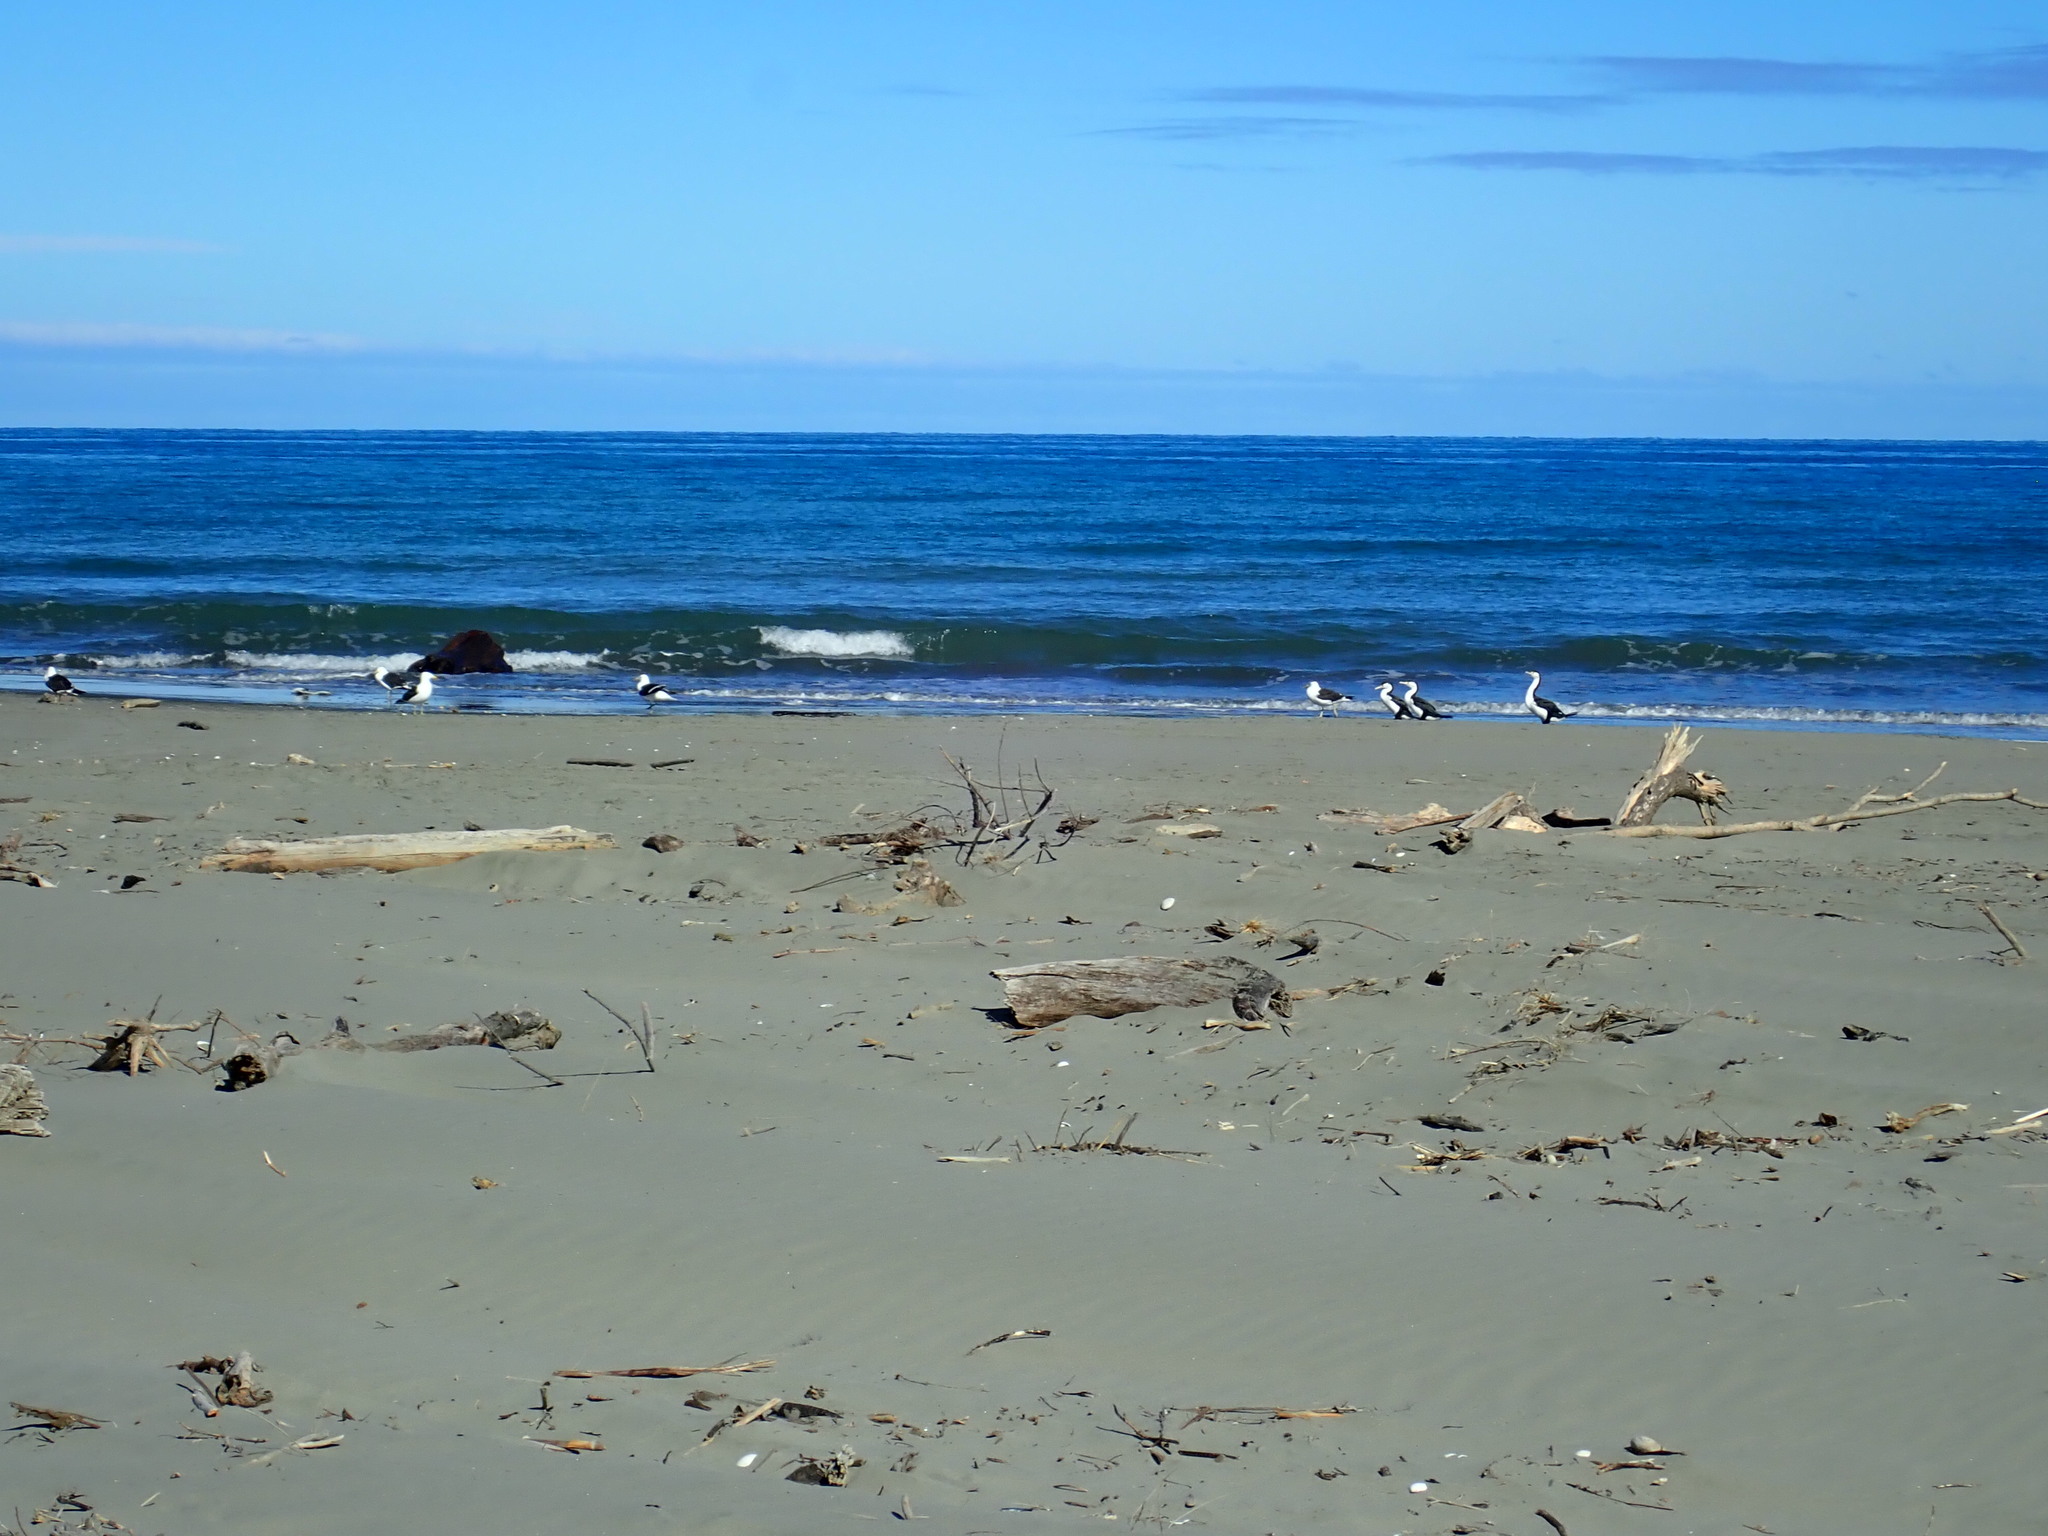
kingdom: Animalia
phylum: Chordata
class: Aves
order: Suliformes
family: Phalacrocoracidae
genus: Phalacrocorax
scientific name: Phalacrocorax varius
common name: Pied cormorant
